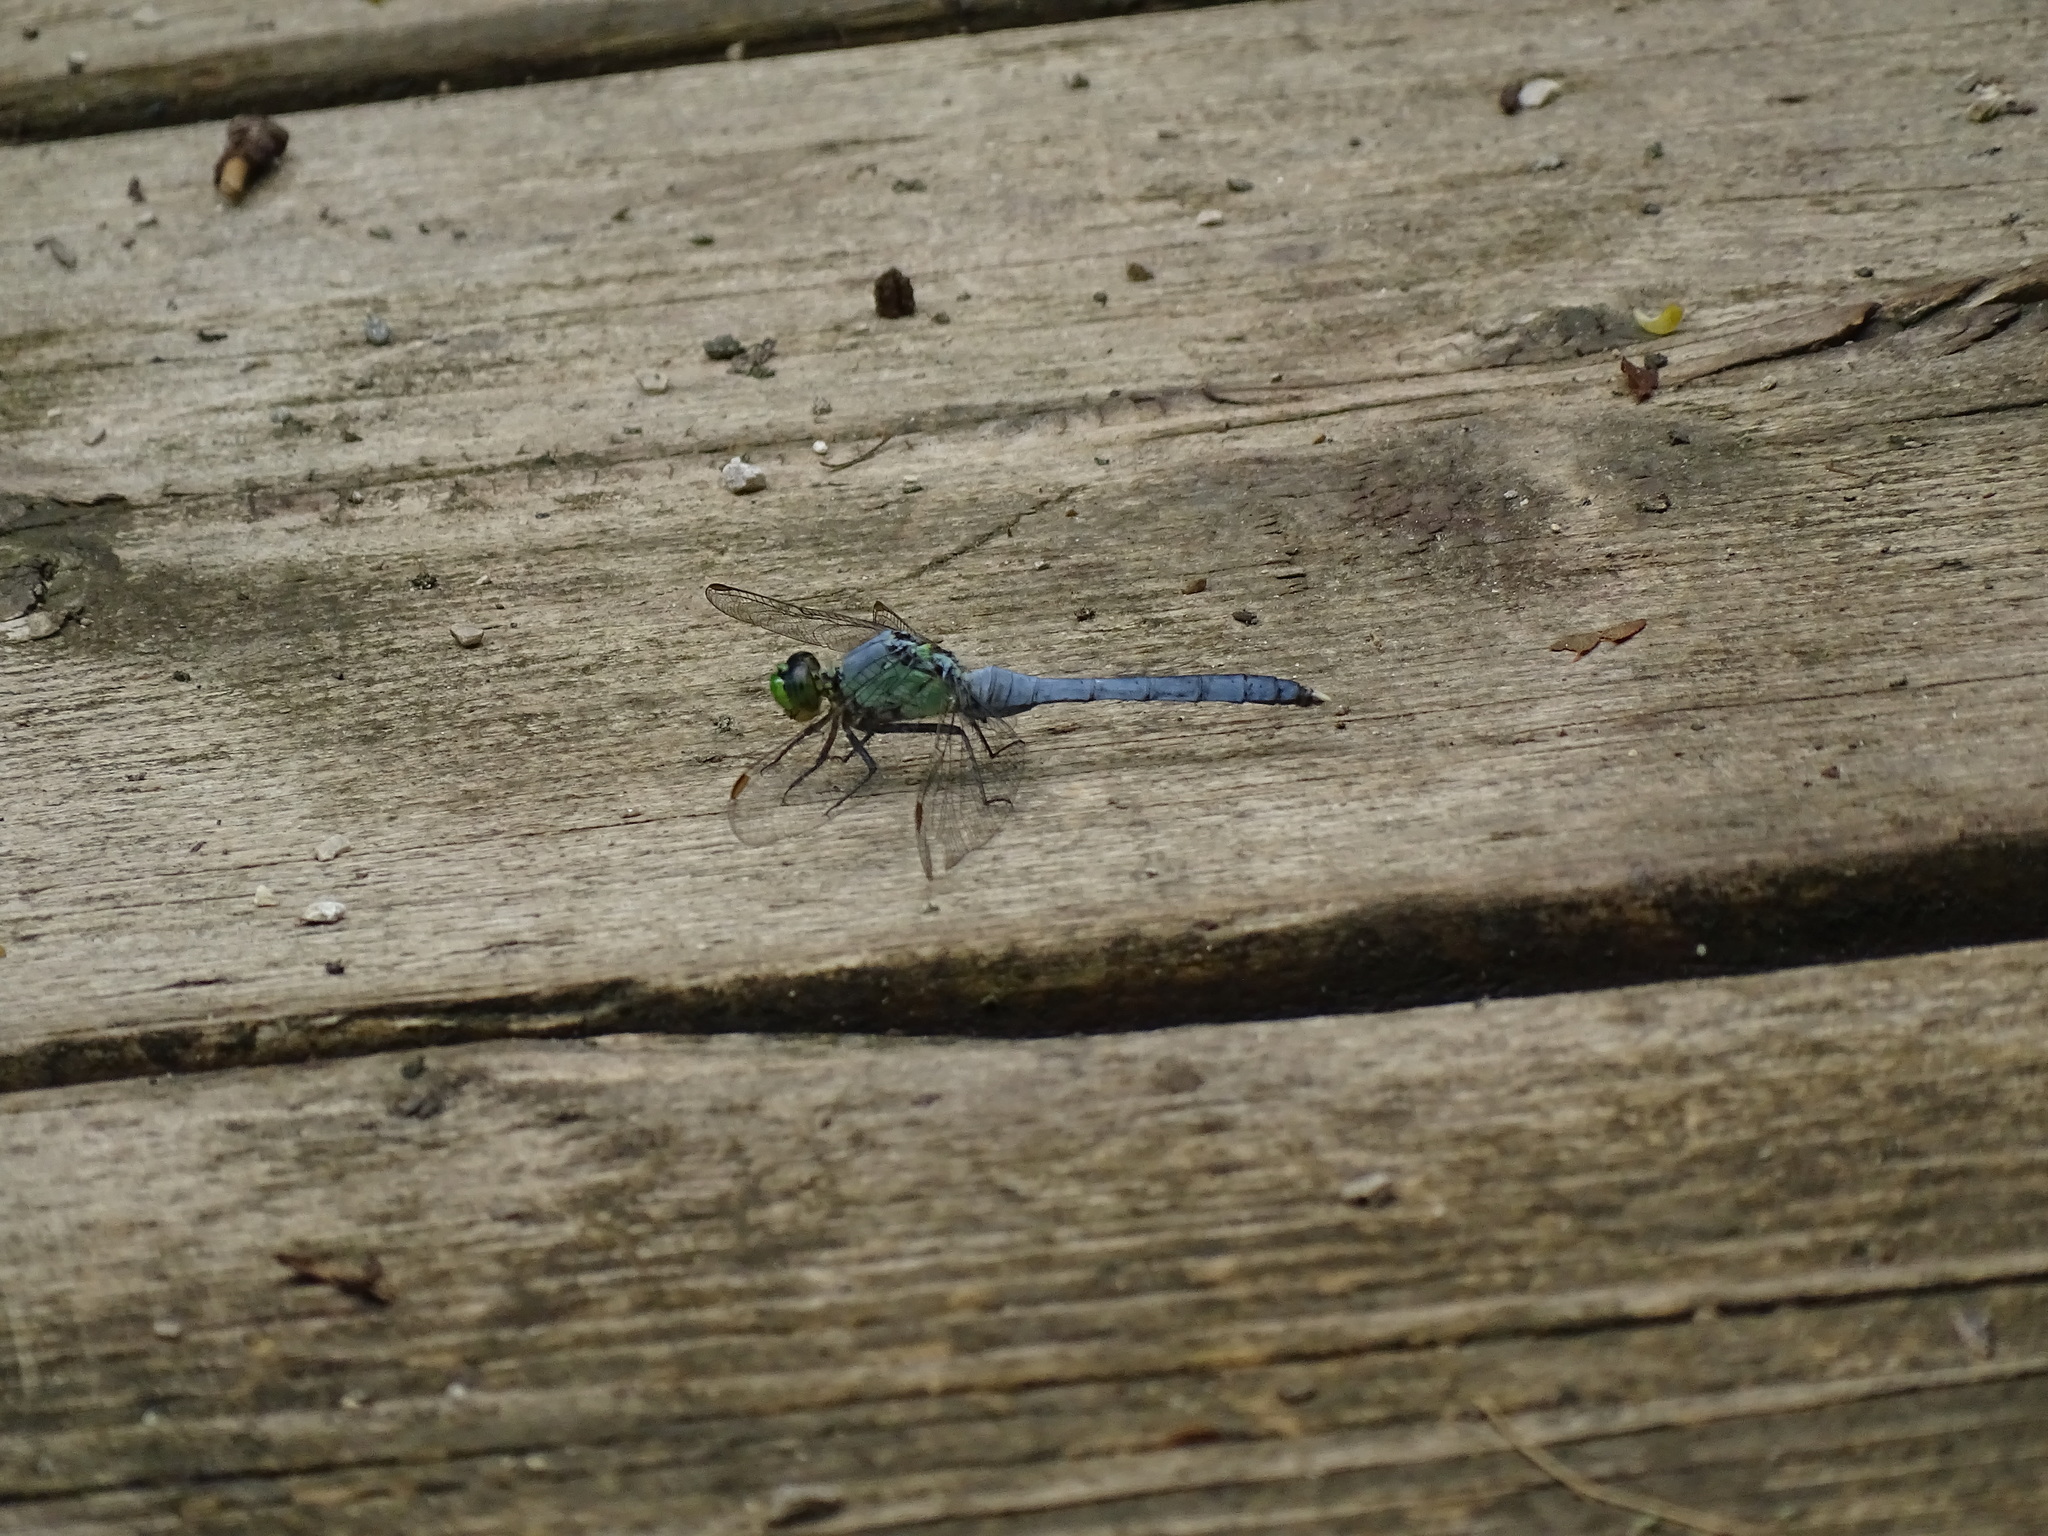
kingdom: Animalia
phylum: Arthropoda
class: Insecta
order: Odonata
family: Libellulidae
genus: Erythemis
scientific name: Erythemis simplicicollis
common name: Eastern pondhawk
